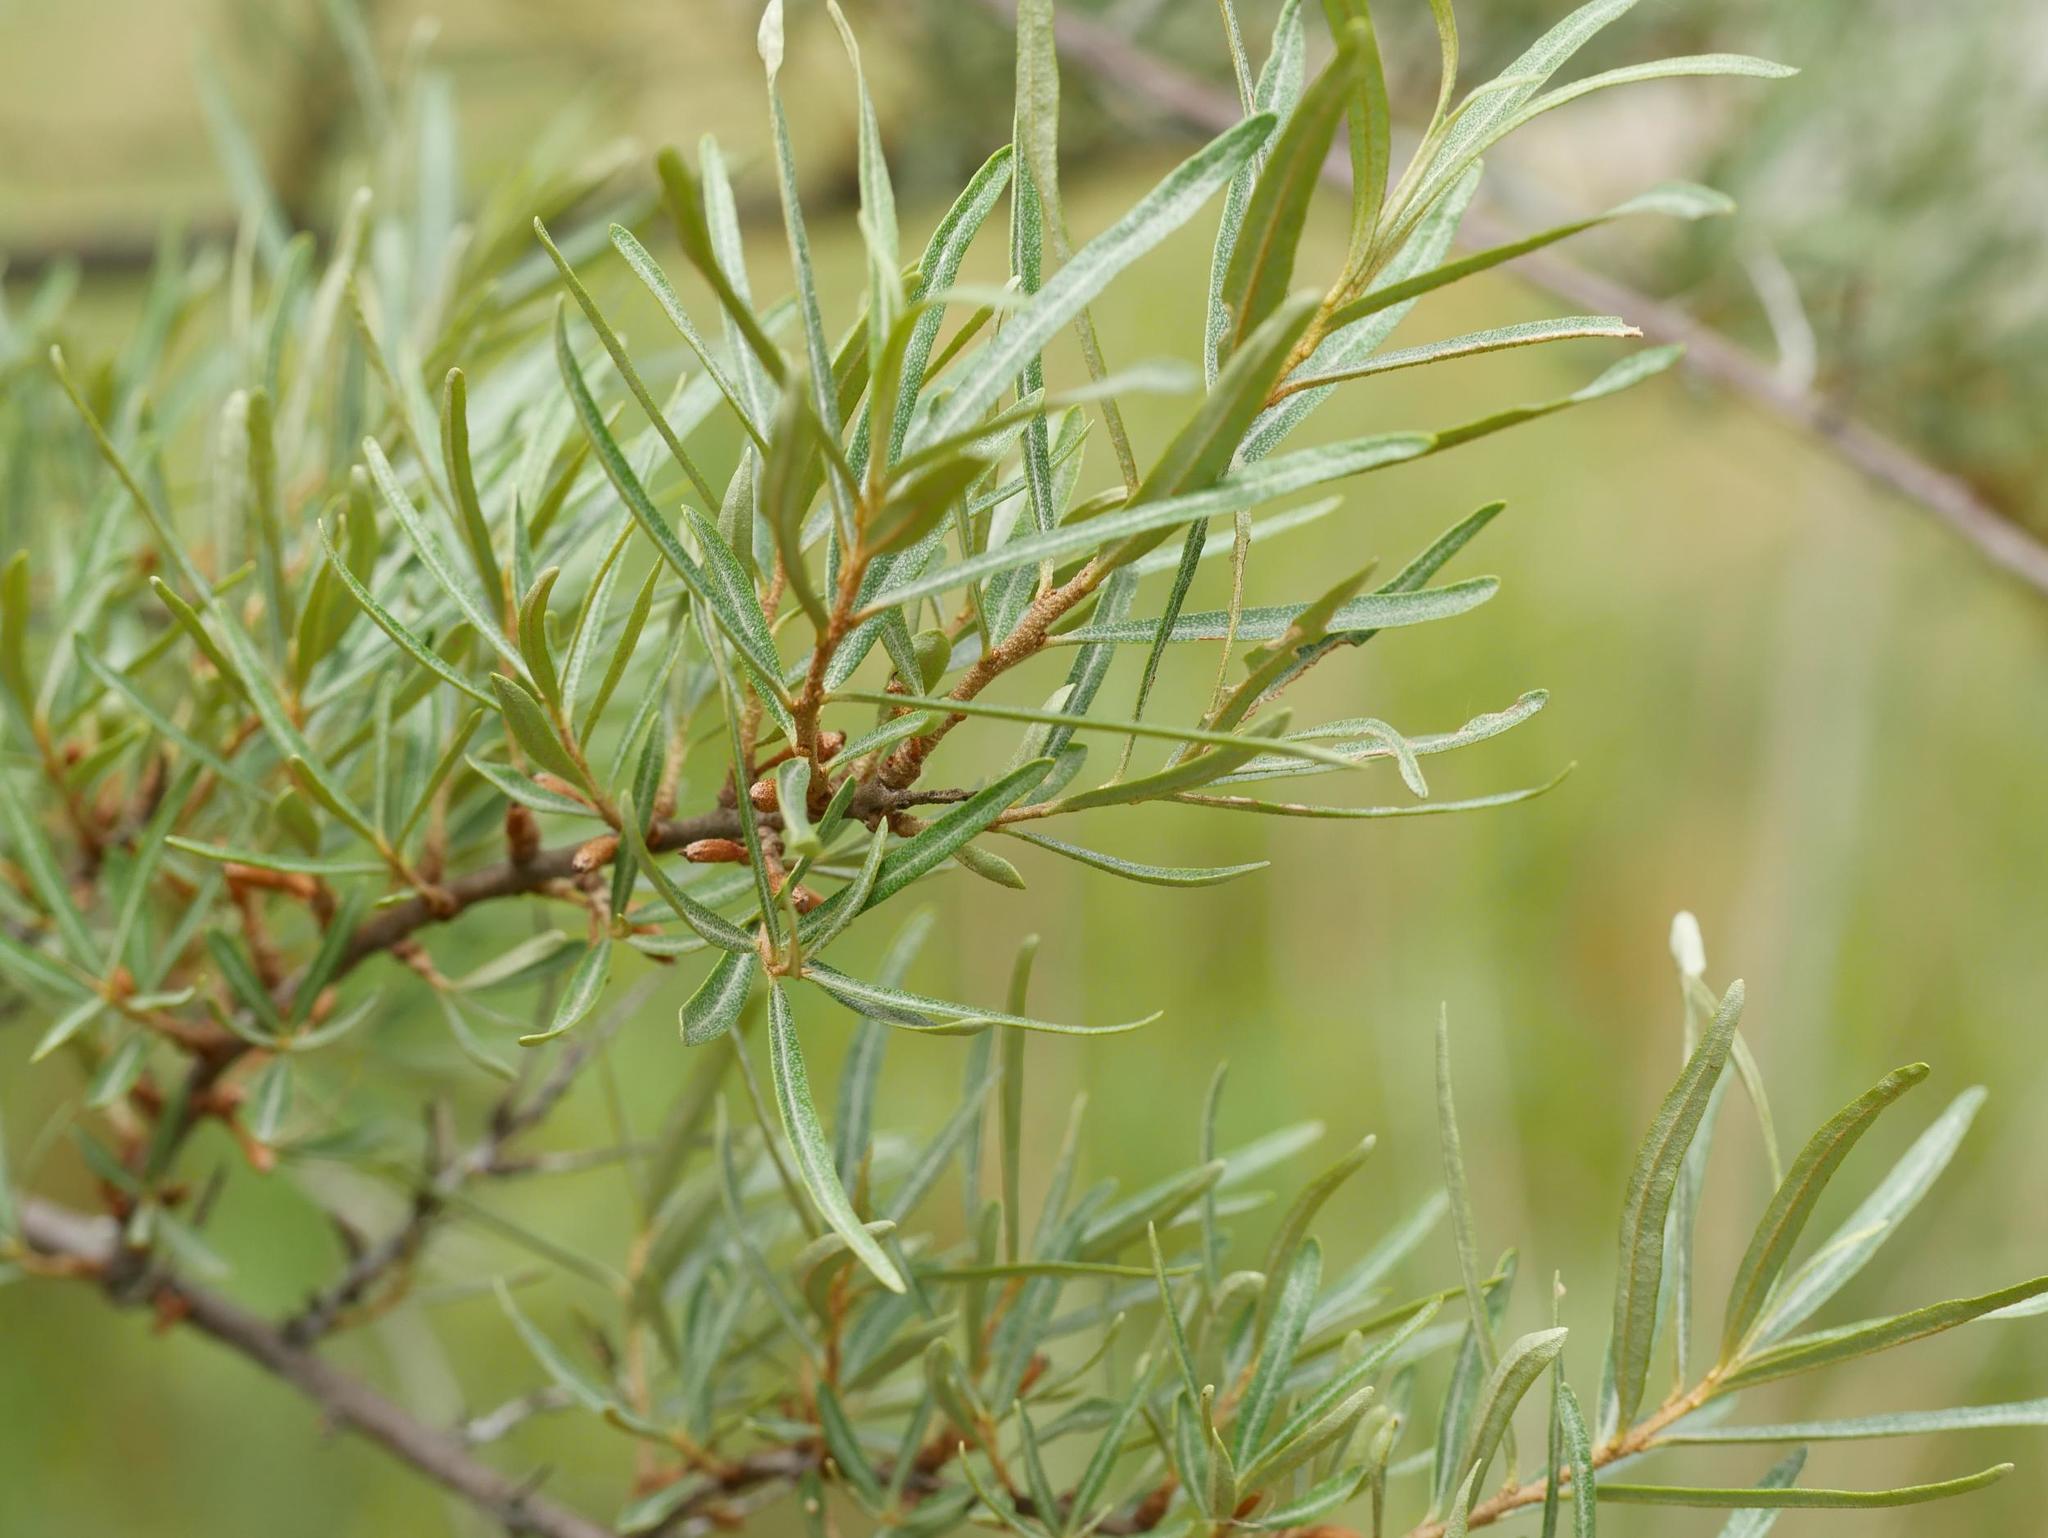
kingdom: Plantae
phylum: Tracheophyta
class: Magnoliopsida
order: Rosales
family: Elaeagnaceae
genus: Hippophae
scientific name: Hippophae rhamnoides
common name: Sea-buckthorn
